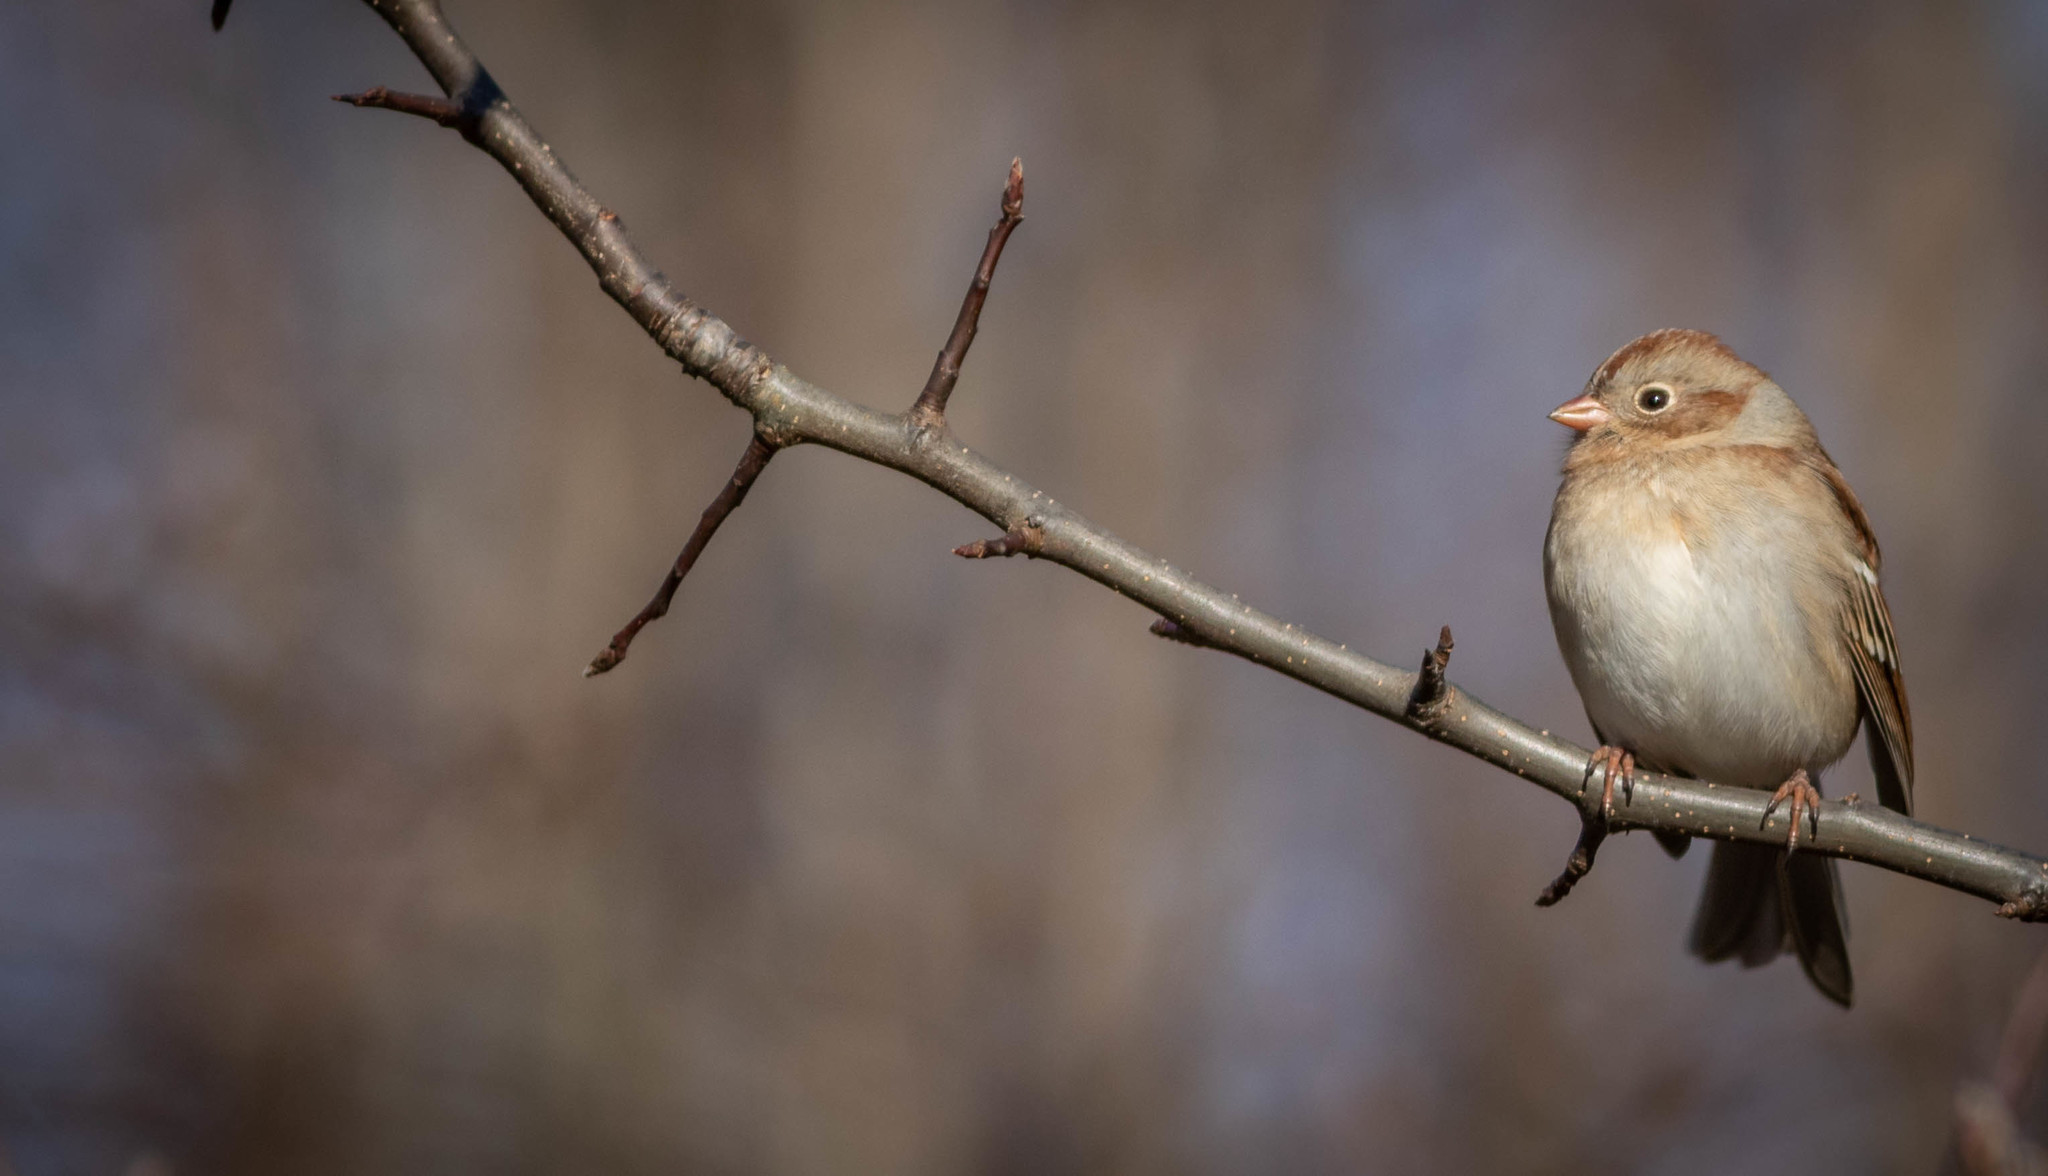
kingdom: Animalia
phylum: Chordata
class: Aves
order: Passeriformes
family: Passerellidae
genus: Spizella
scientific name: Spizella pusilla
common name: Field sparrow
